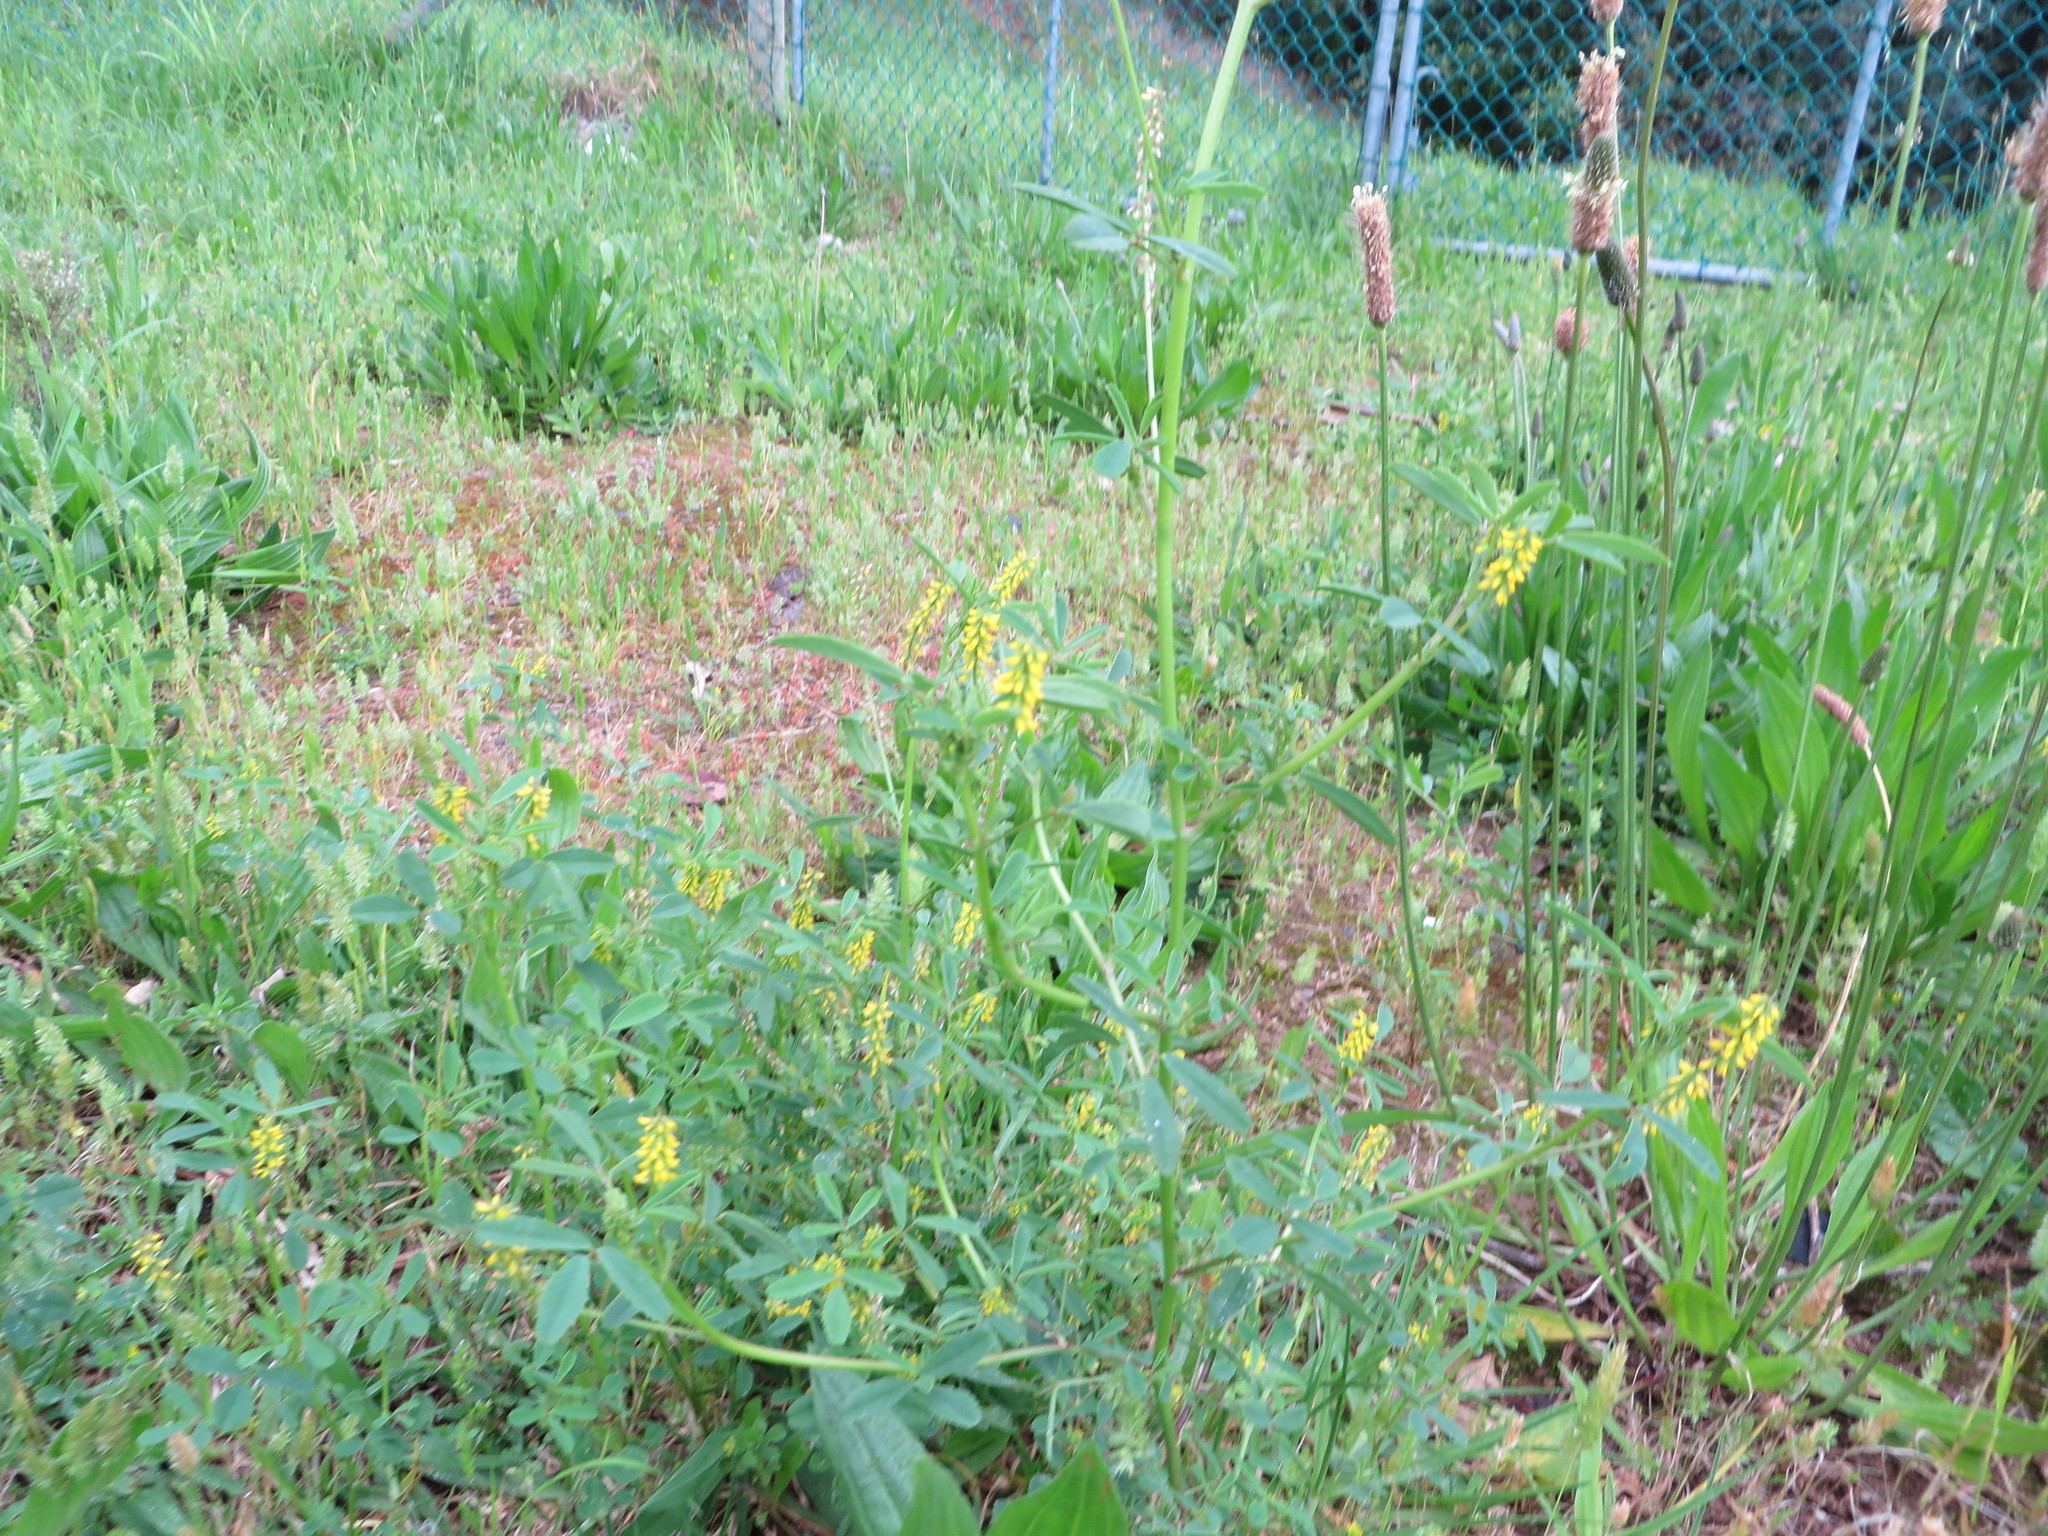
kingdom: Plantae
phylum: Tracheophyta
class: Magnoliopsida
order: Fabales
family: Fabaceae
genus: Melilotus
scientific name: Melilotus indicus
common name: Small melilot
